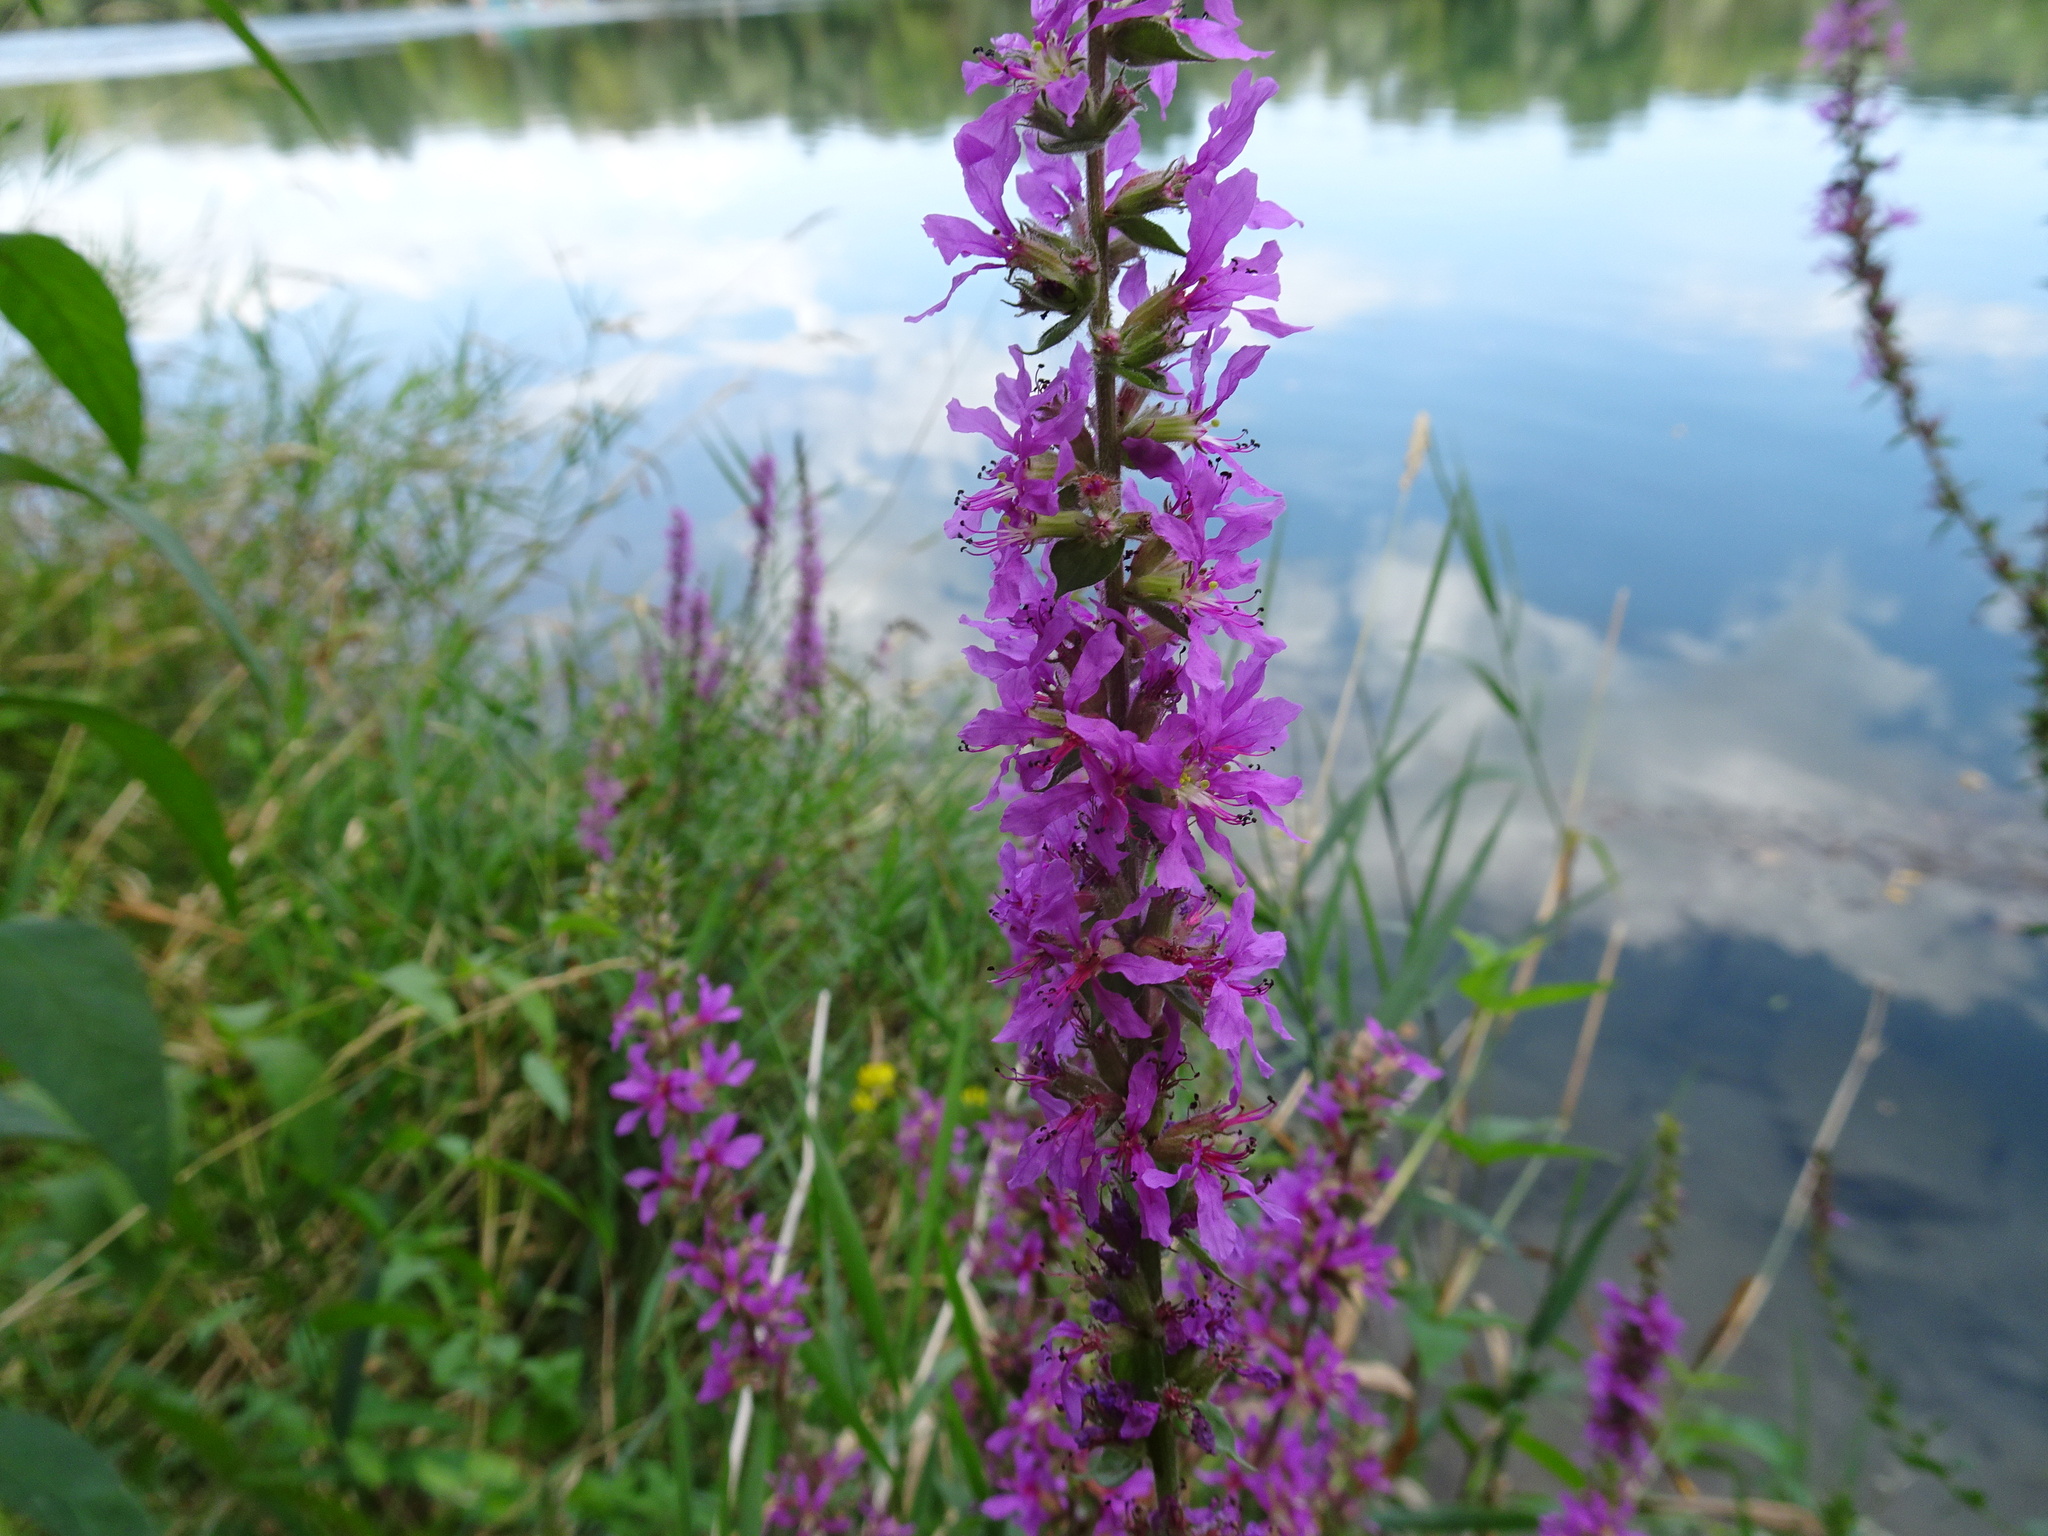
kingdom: Plantae
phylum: Tracheophyta
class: Magnoliopsida
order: Myrtales
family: Lythraceae
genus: Lythrum
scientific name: Lythrum salicaria
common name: Purple loosestrife
